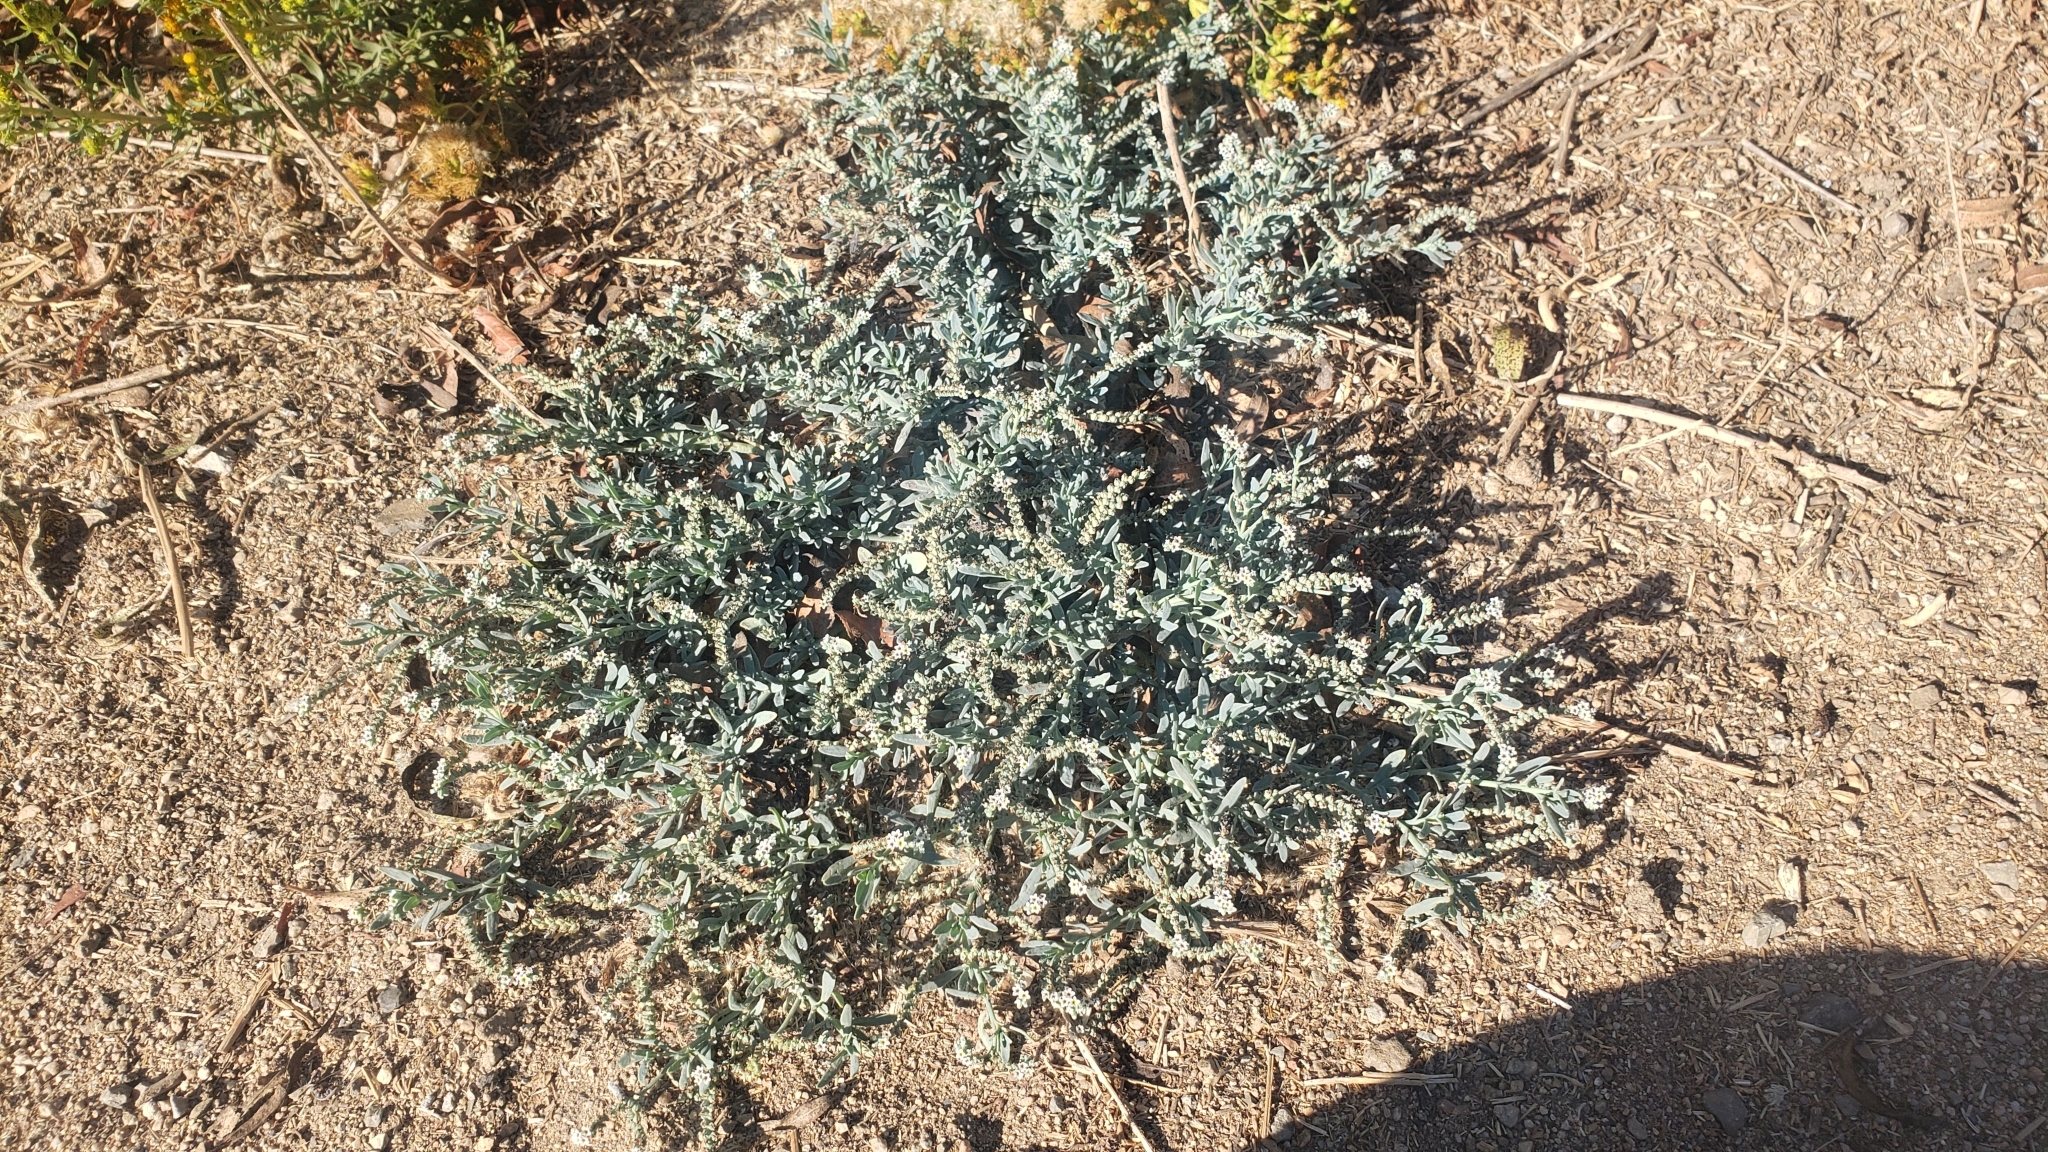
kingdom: Plantae
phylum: Tracheophyta
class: Magnoliopsida
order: Boraginales
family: Heliotropiaceae
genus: Heliotropium
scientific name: Heliotropium curassavicum
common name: Seaside heliotrope
